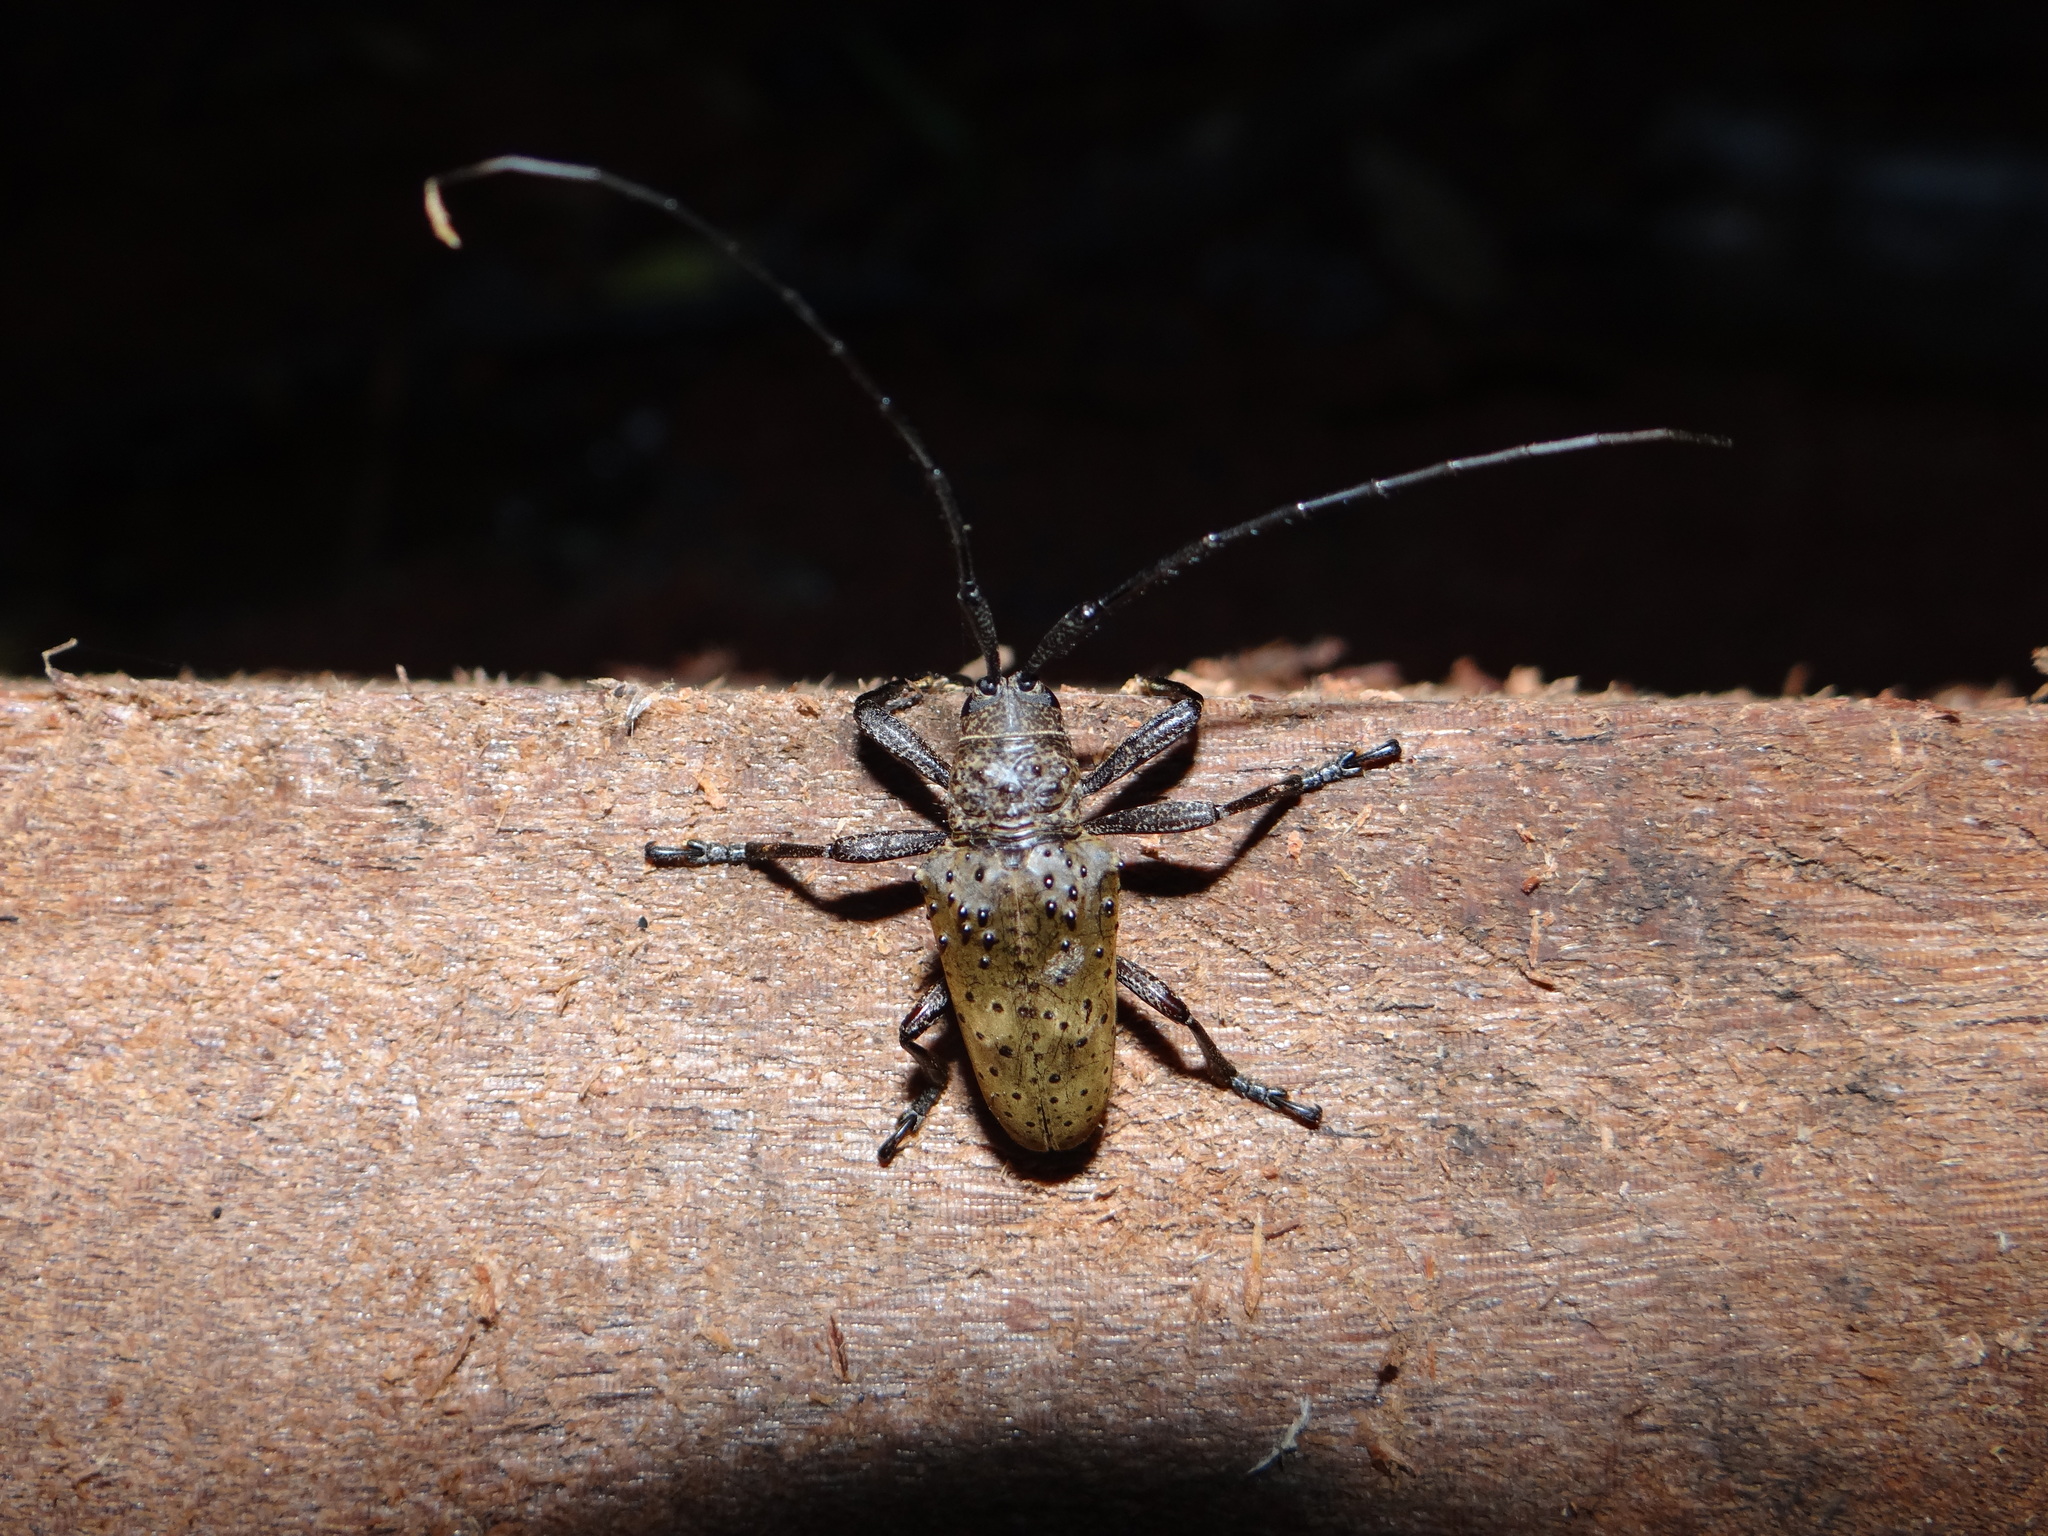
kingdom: Animalia
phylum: Arthropoda
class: Insecta
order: Coleoptera
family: Cerambycidae
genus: Jamesia
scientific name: Jamesia globifera
